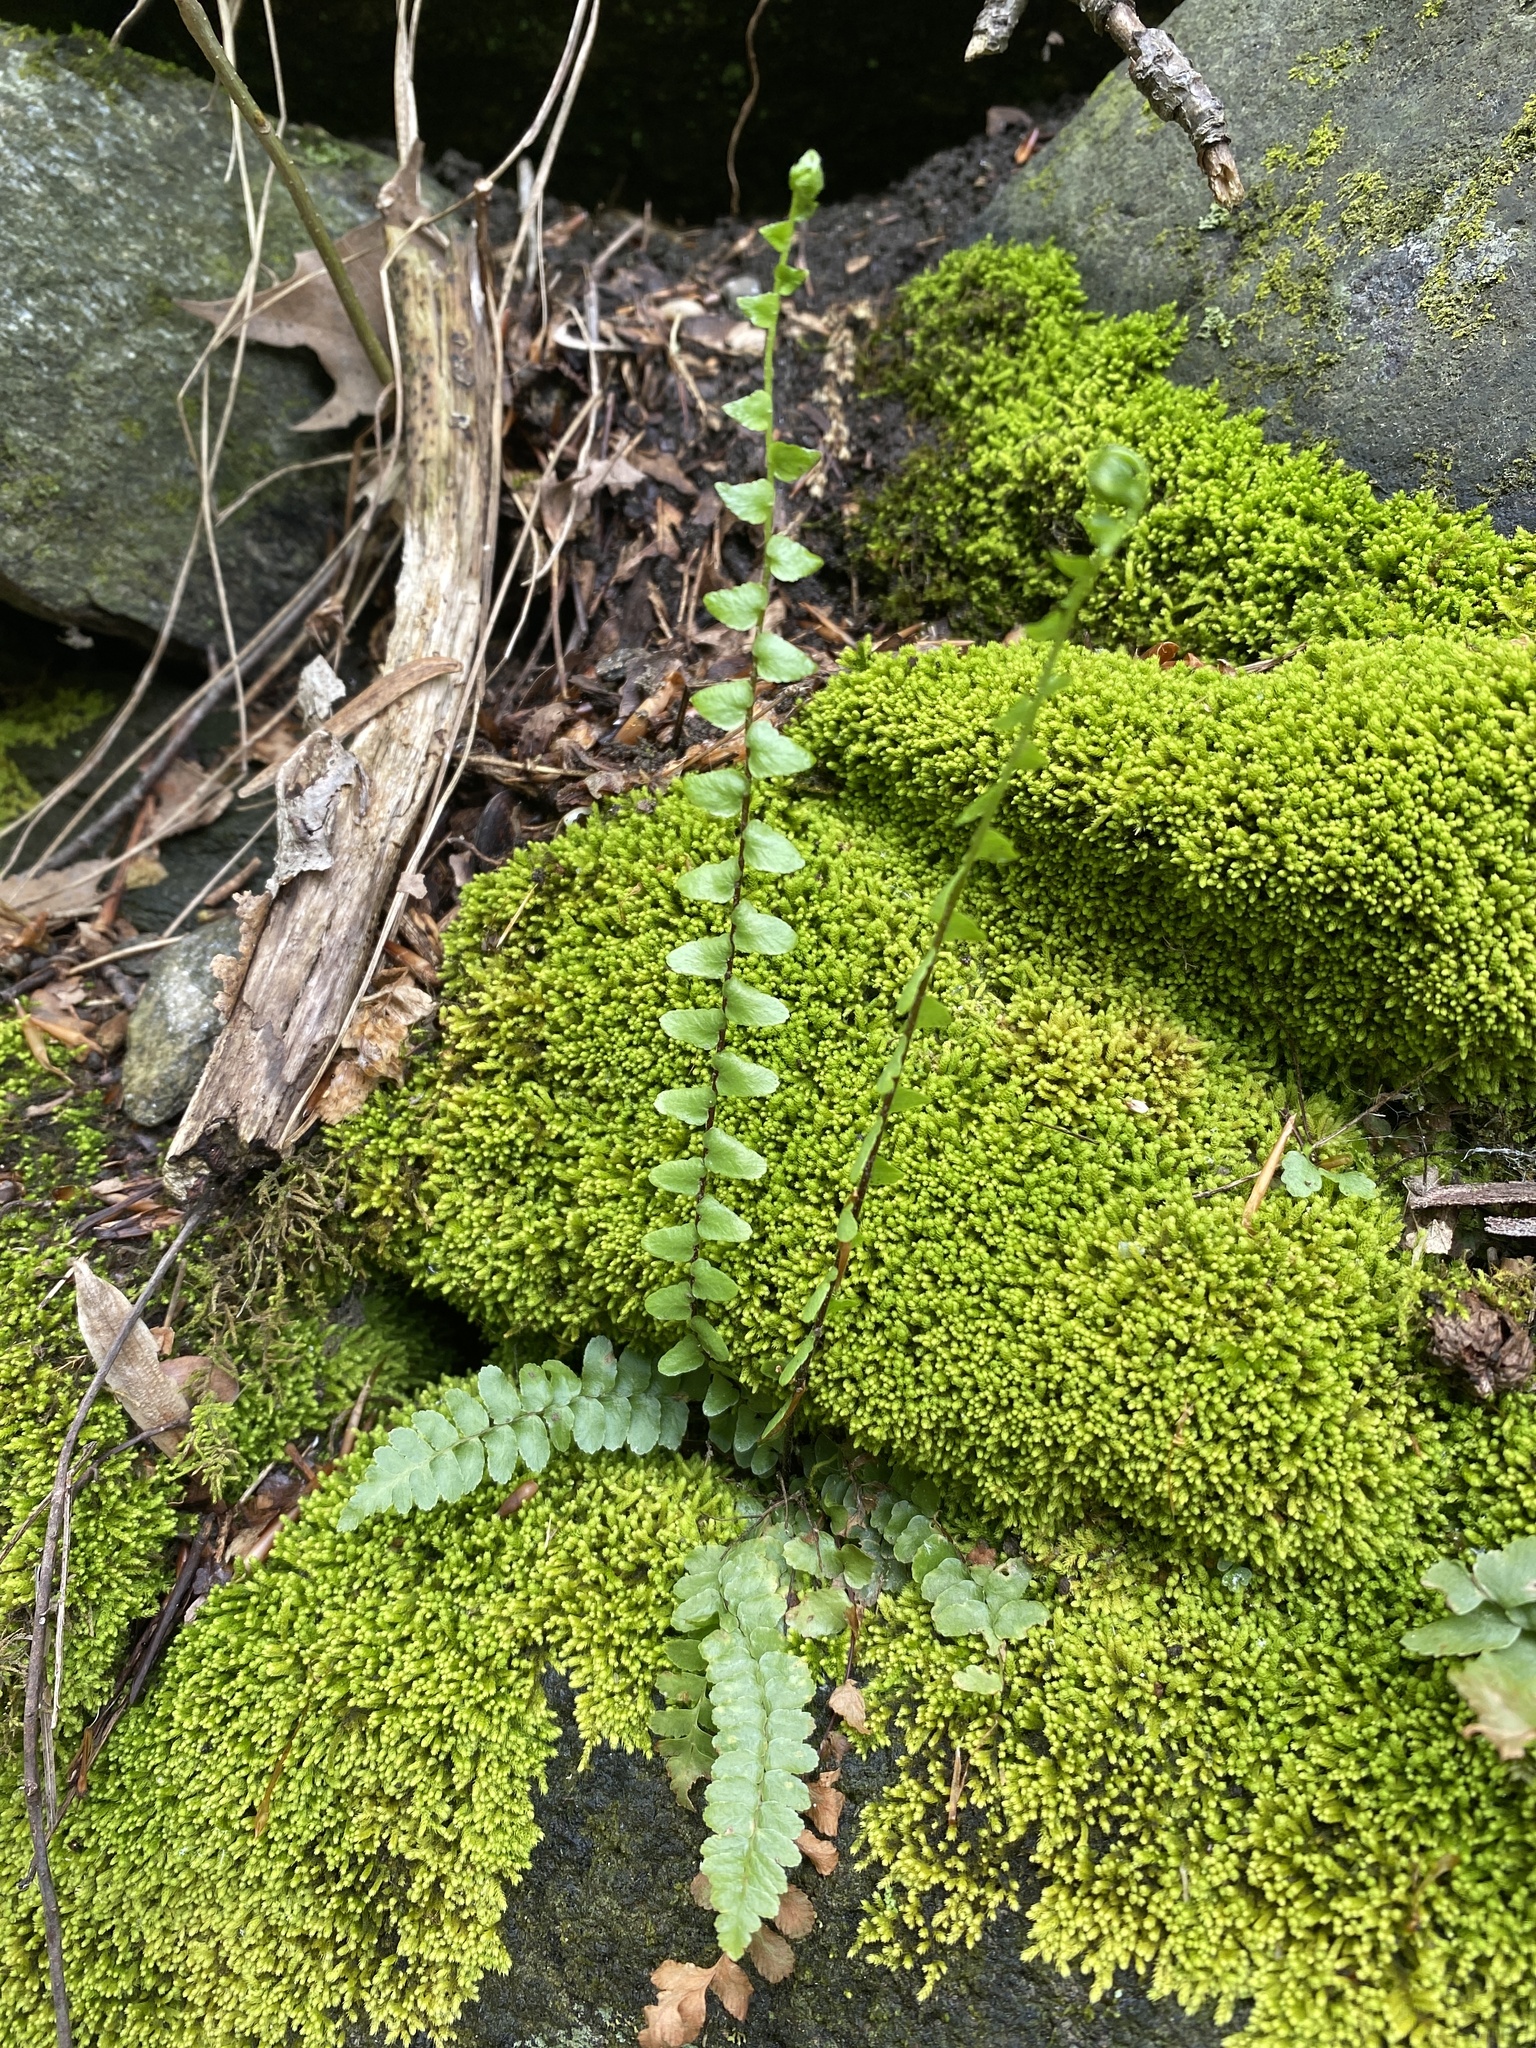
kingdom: Plantae
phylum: Tracheophyta
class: Polypodiopsida
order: Polypodiales
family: Aspleniaceae
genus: Asplenium
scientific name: Asplenium platyneuron
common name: Ebony spleenwort
